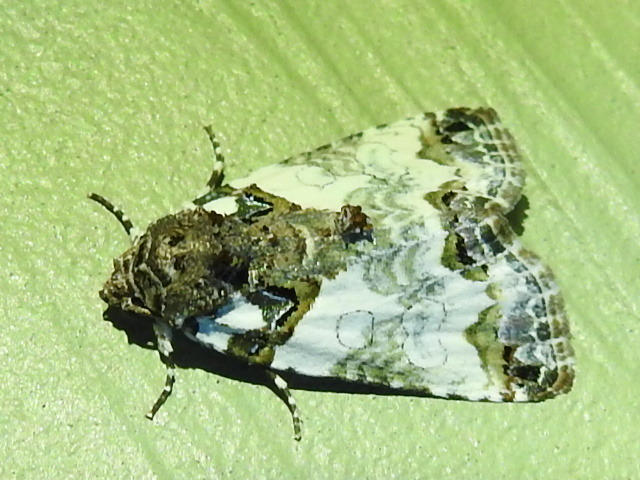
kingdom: Animalia
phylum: Arthropoda
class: Insecta
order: Lepidoptera
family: Noctuidae
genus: Cerma
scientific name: Cerma cerintha
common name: Tufted bird-dropping moth
